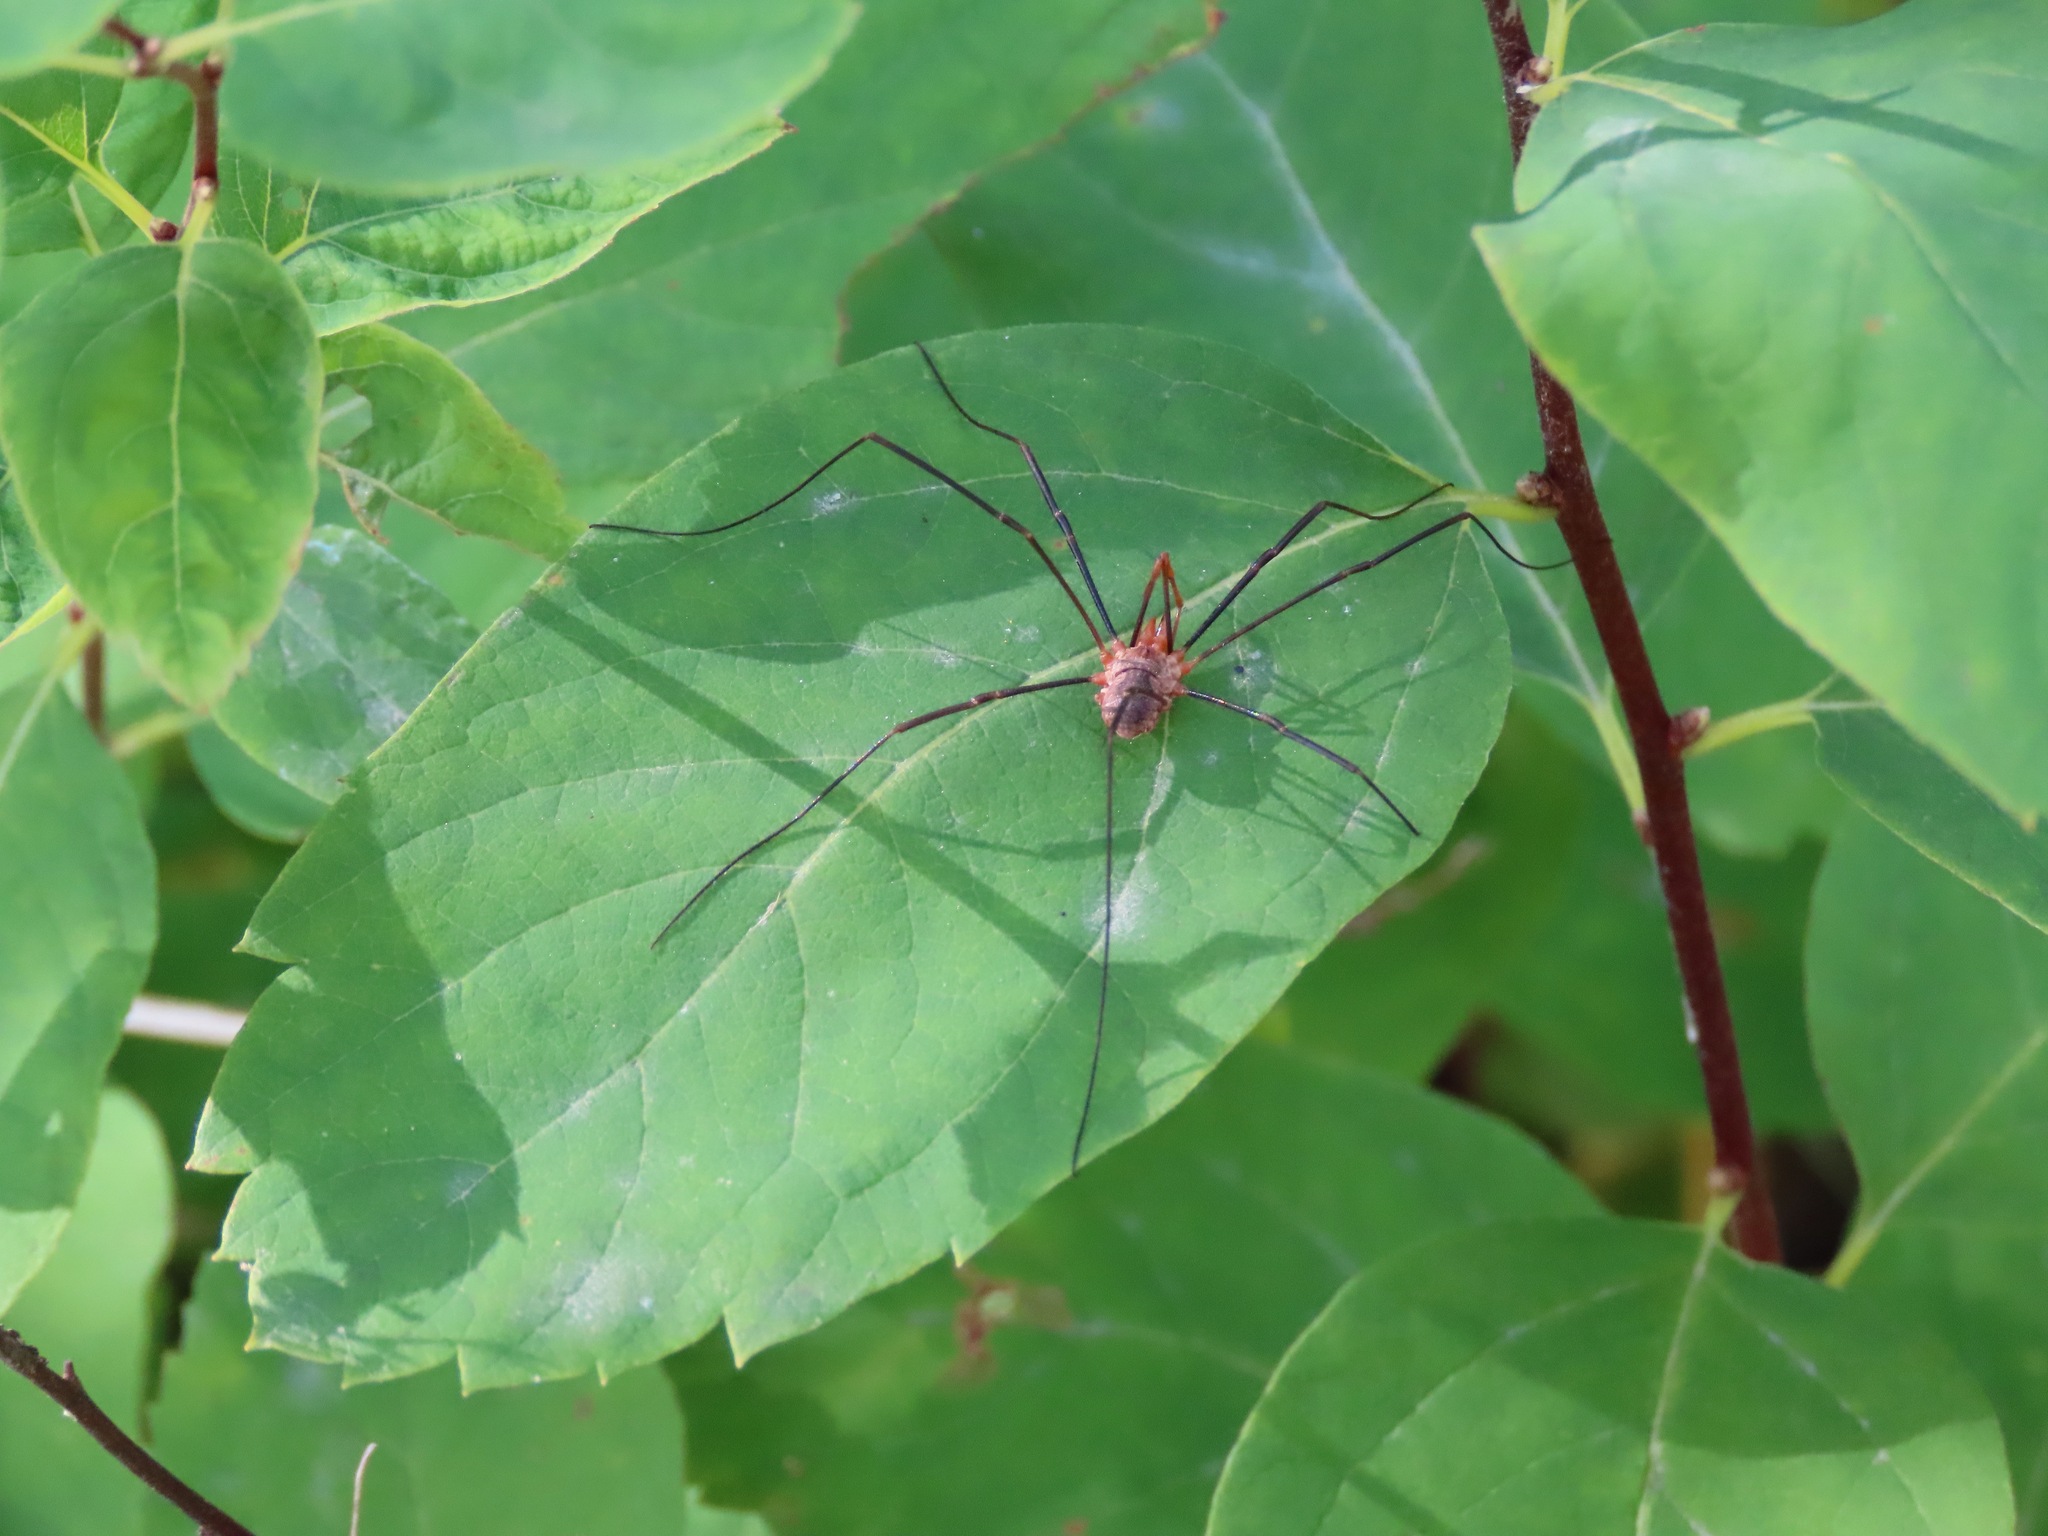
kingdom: Animalia
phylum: Arthropoda
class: Arachnida
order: Opiliones
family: Phalangiidae
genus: Phalangium
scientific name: Phalangium opilio
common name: Daddy longleg
